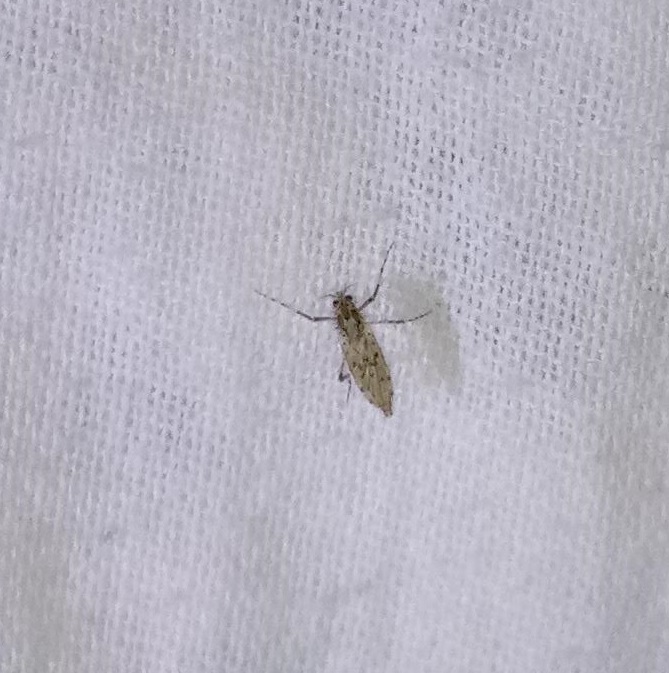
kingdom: Animalia
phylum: Arthropoda
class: Insecta
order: Diptera
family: Chaoboridae
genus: Chaoborus
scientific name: Chaoborus punctipennis
